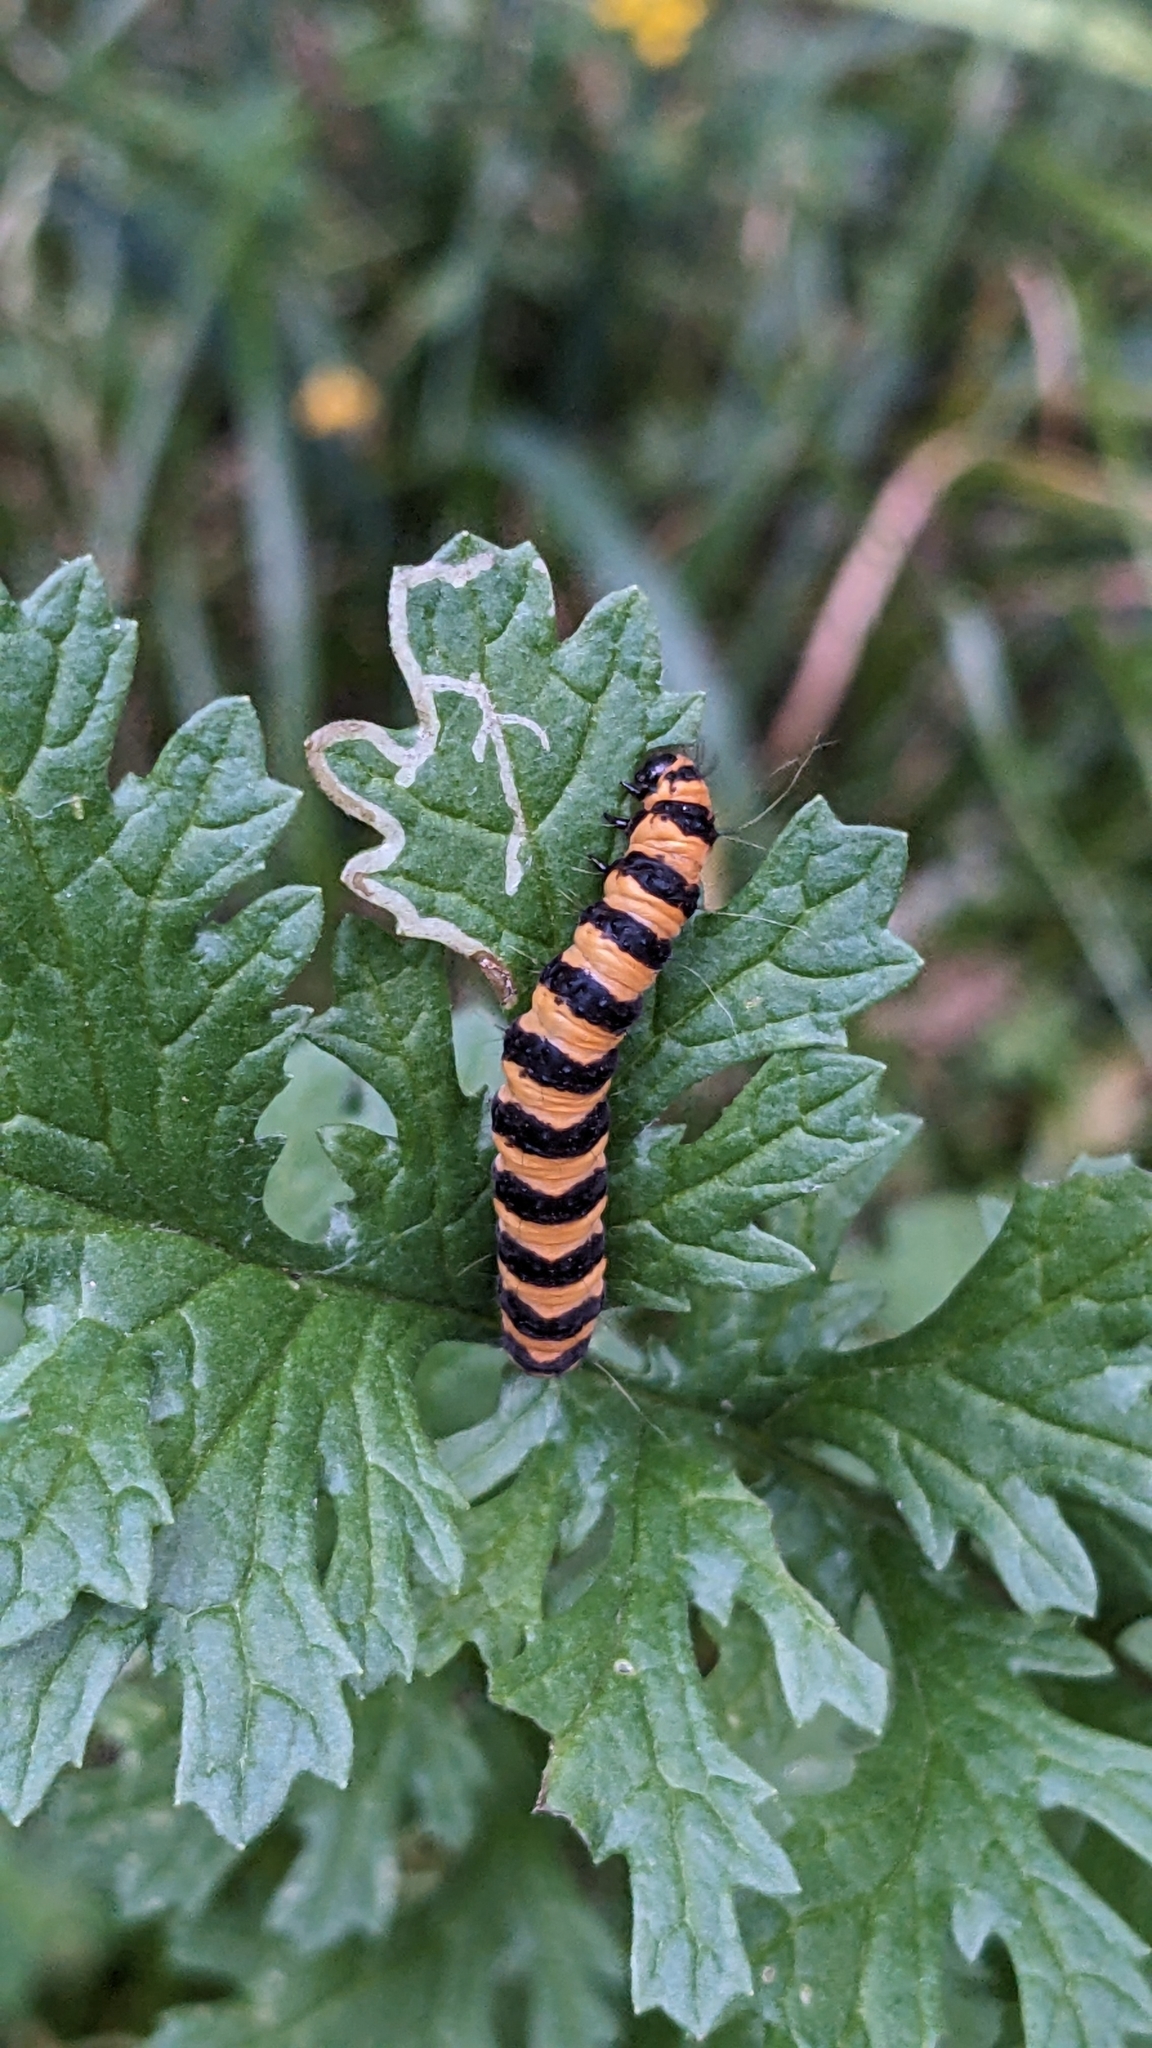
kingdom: Animalia
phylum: Arthropoda
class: Insecta
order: Lepidoptera
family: Erebidae
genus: Tyria
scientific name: Tyria jacobaeae
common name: Cinnabar
